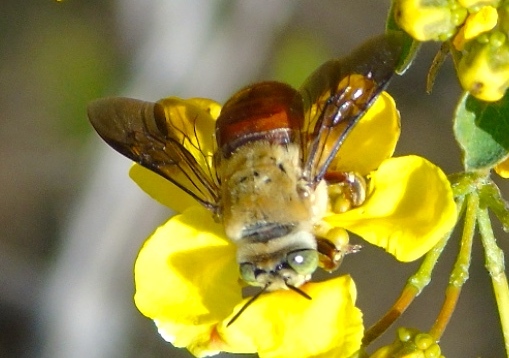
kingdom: Animalia
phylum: Arthropoda
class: Insecta
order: Hymenoptera
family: Apidae
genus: Centris
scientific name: Centris eurypatana
